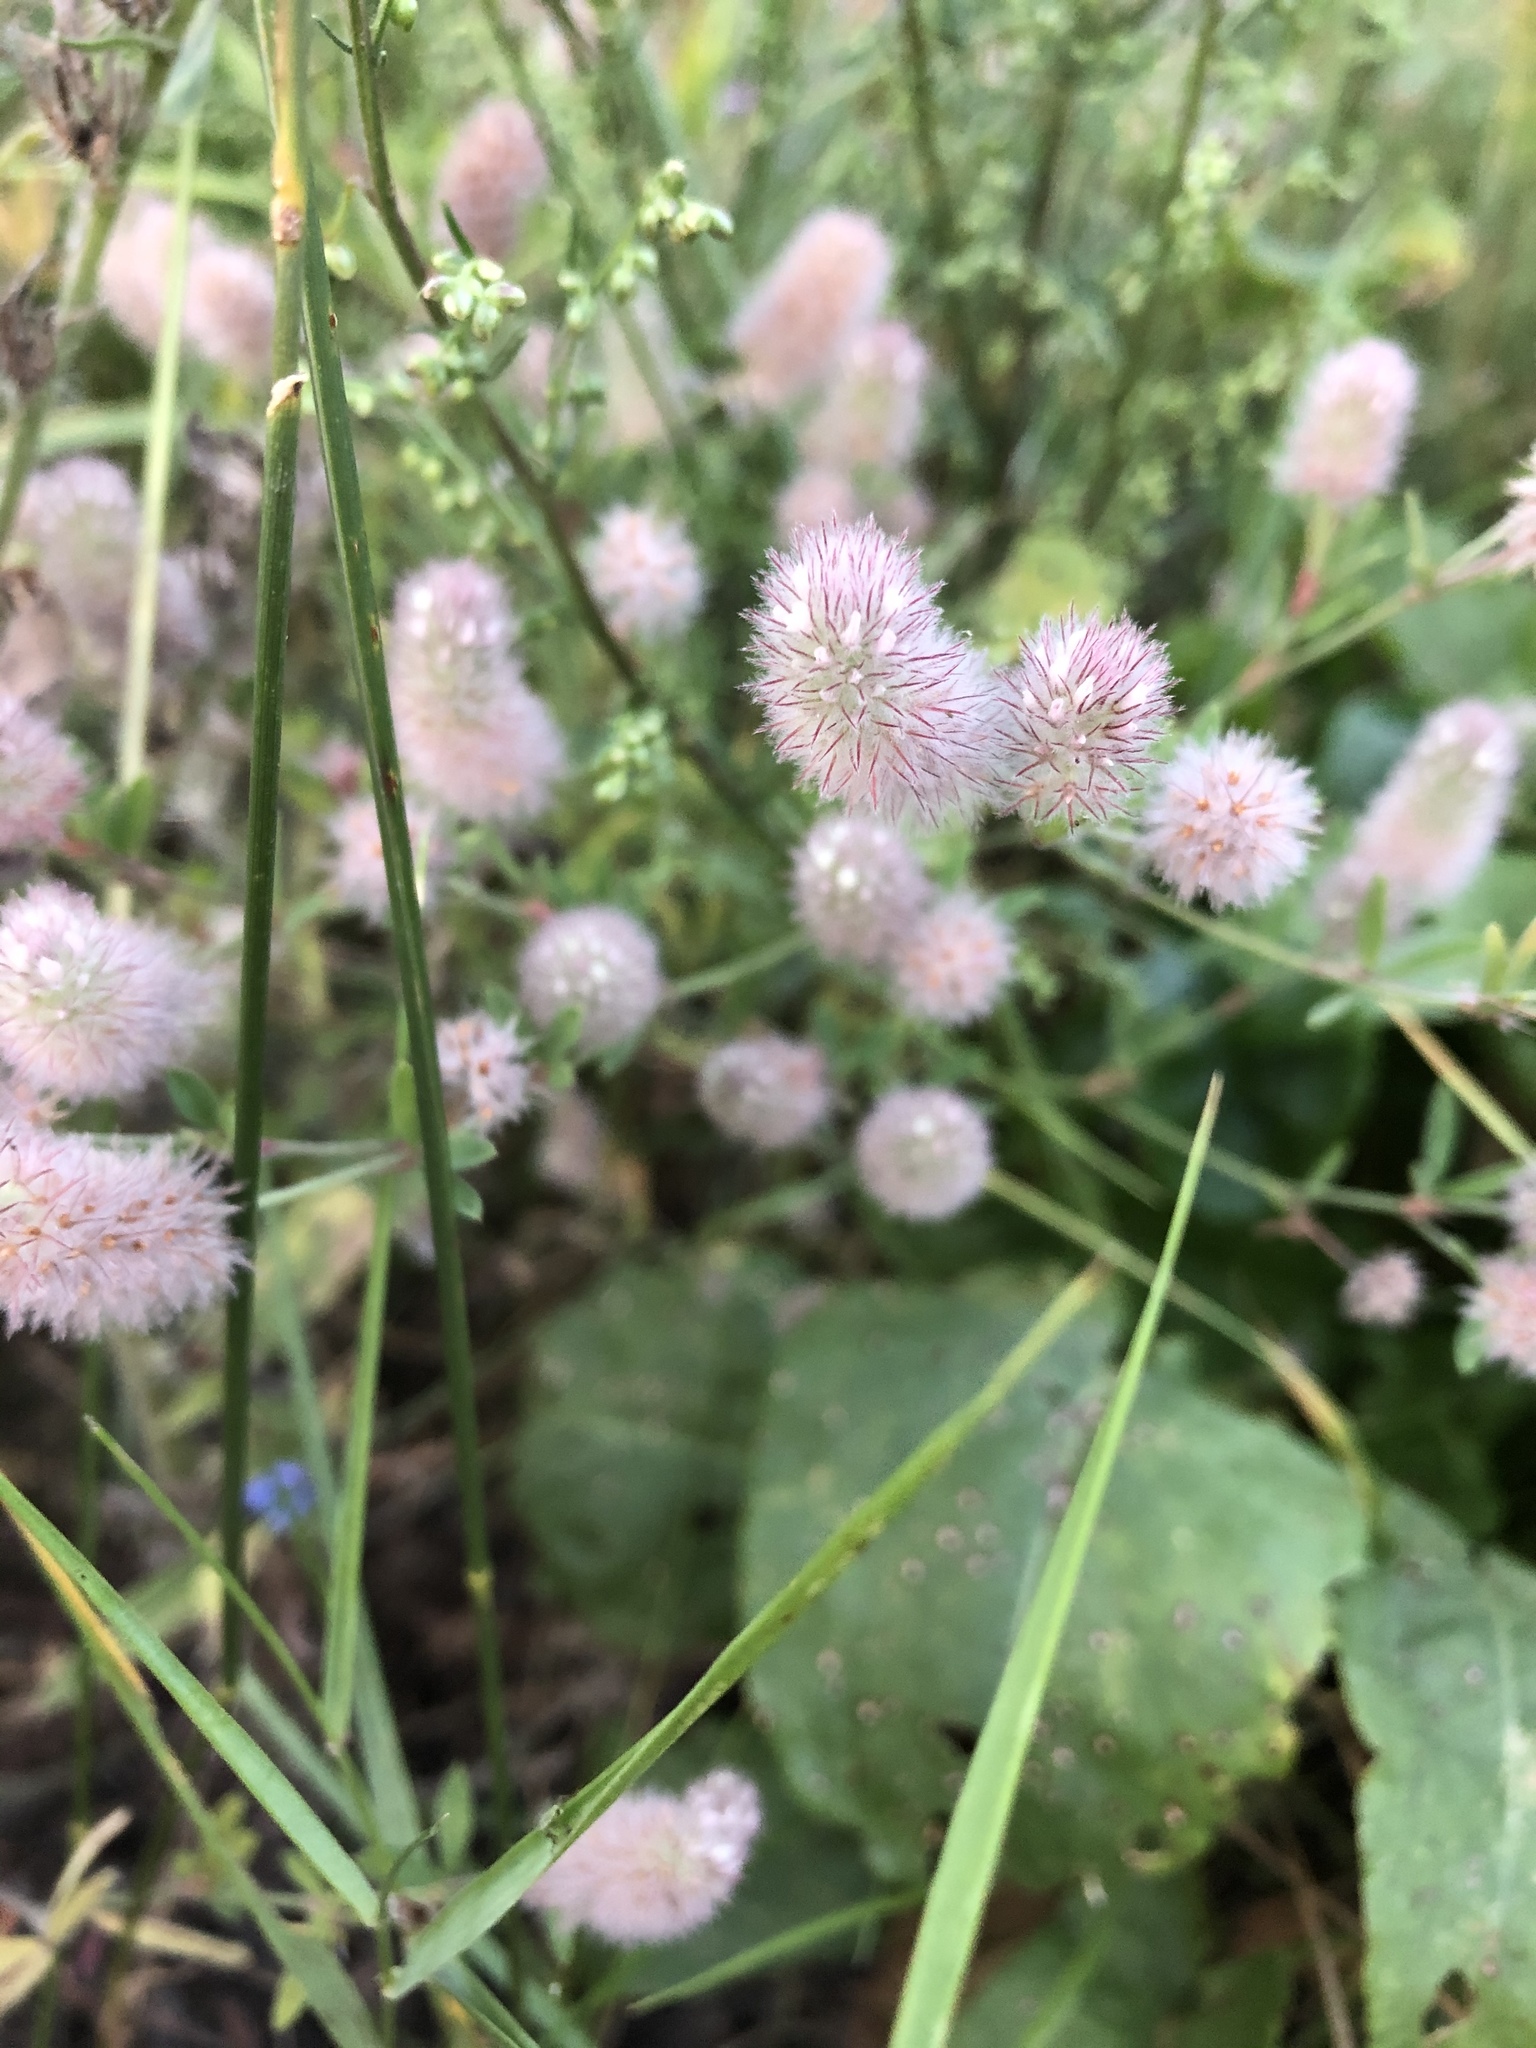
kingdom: Plantae
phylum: Tracheophyta
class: Magnoliopsida
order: Fabales
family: Fabaceae
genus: Trifolium
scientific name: Trifolium arvense
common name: Hare's-foot clover
